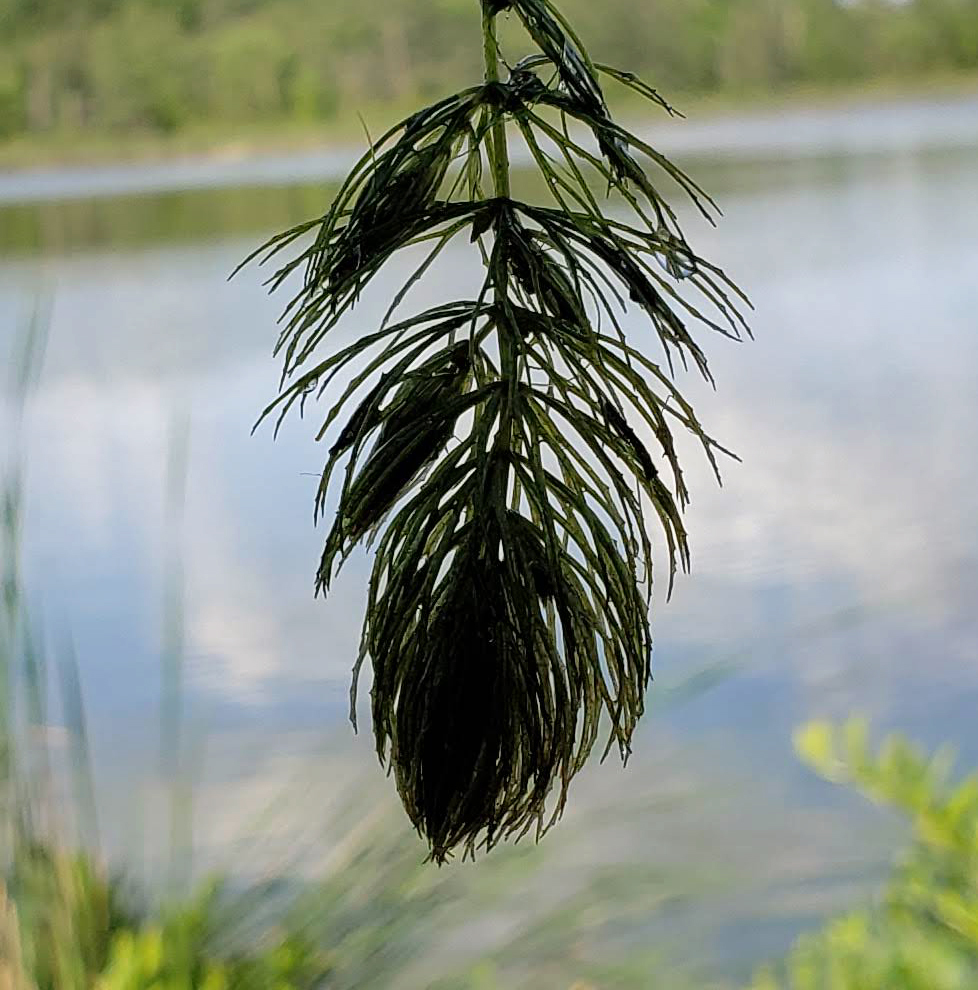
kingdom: Plantae
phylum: Tracheophyta
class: Magnoliopsida
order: Ceratophyllales
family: Ceratophyllaceae
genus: Ceratophyllum
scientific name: Ceratophyllum demersum
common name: Rigid hornwort
